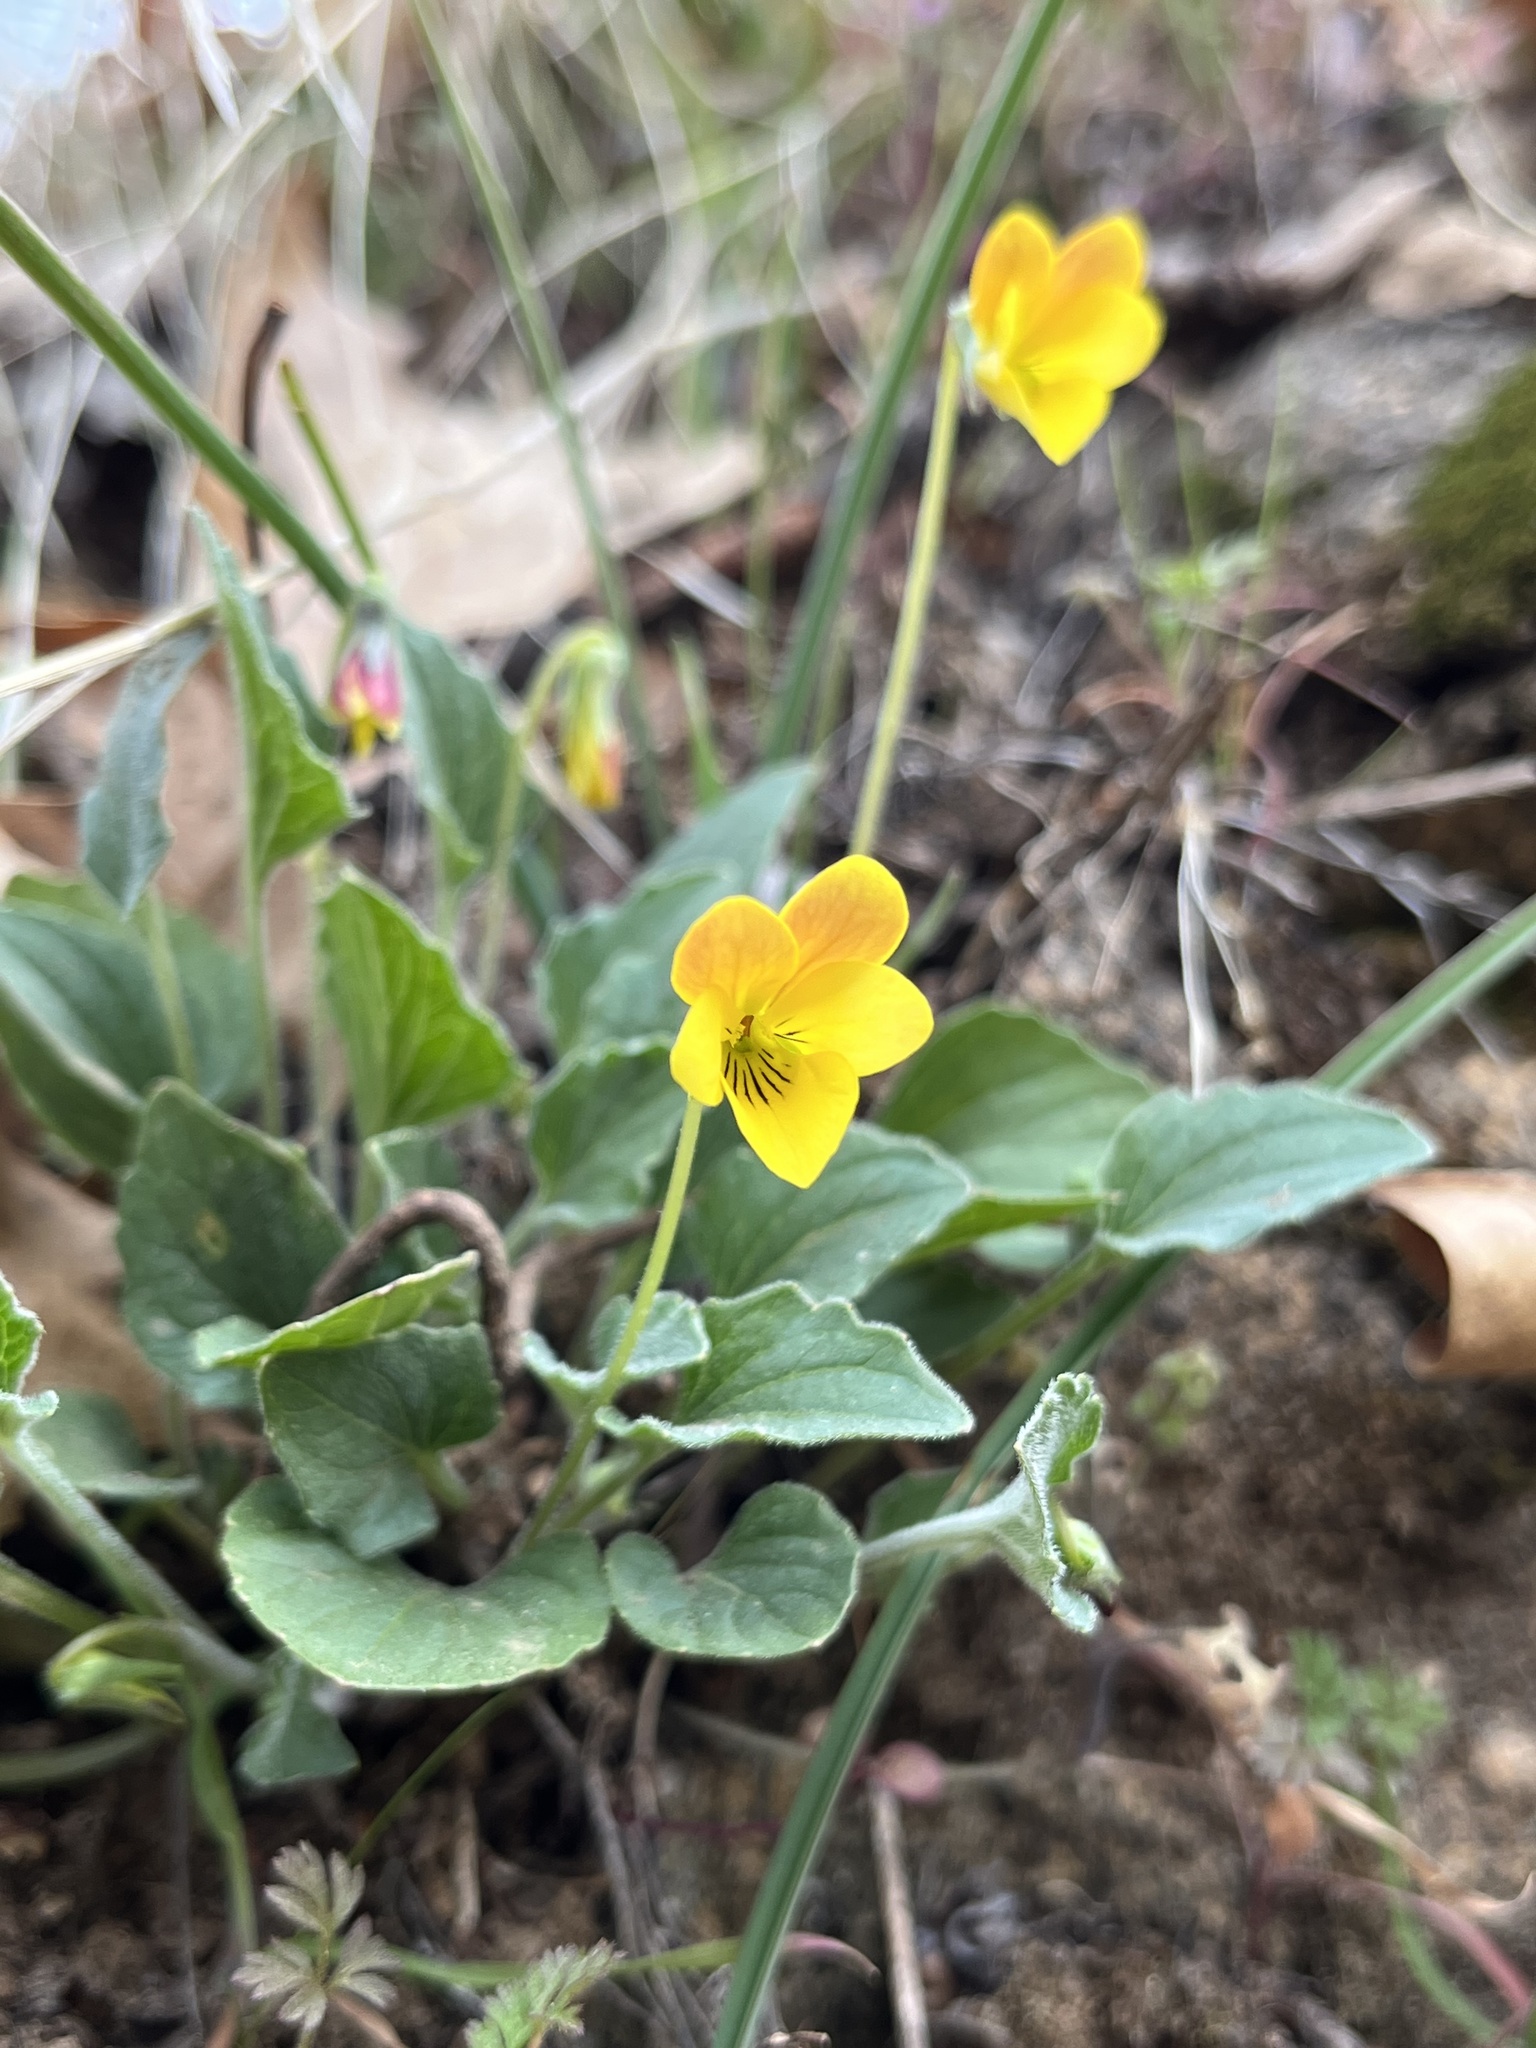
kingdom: Plantae
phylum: Tracheophyta
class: Magnoliopsida
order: Malpighiales
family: Violaceae
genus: Viola
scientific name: Viola purpurea
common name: Pine violet
